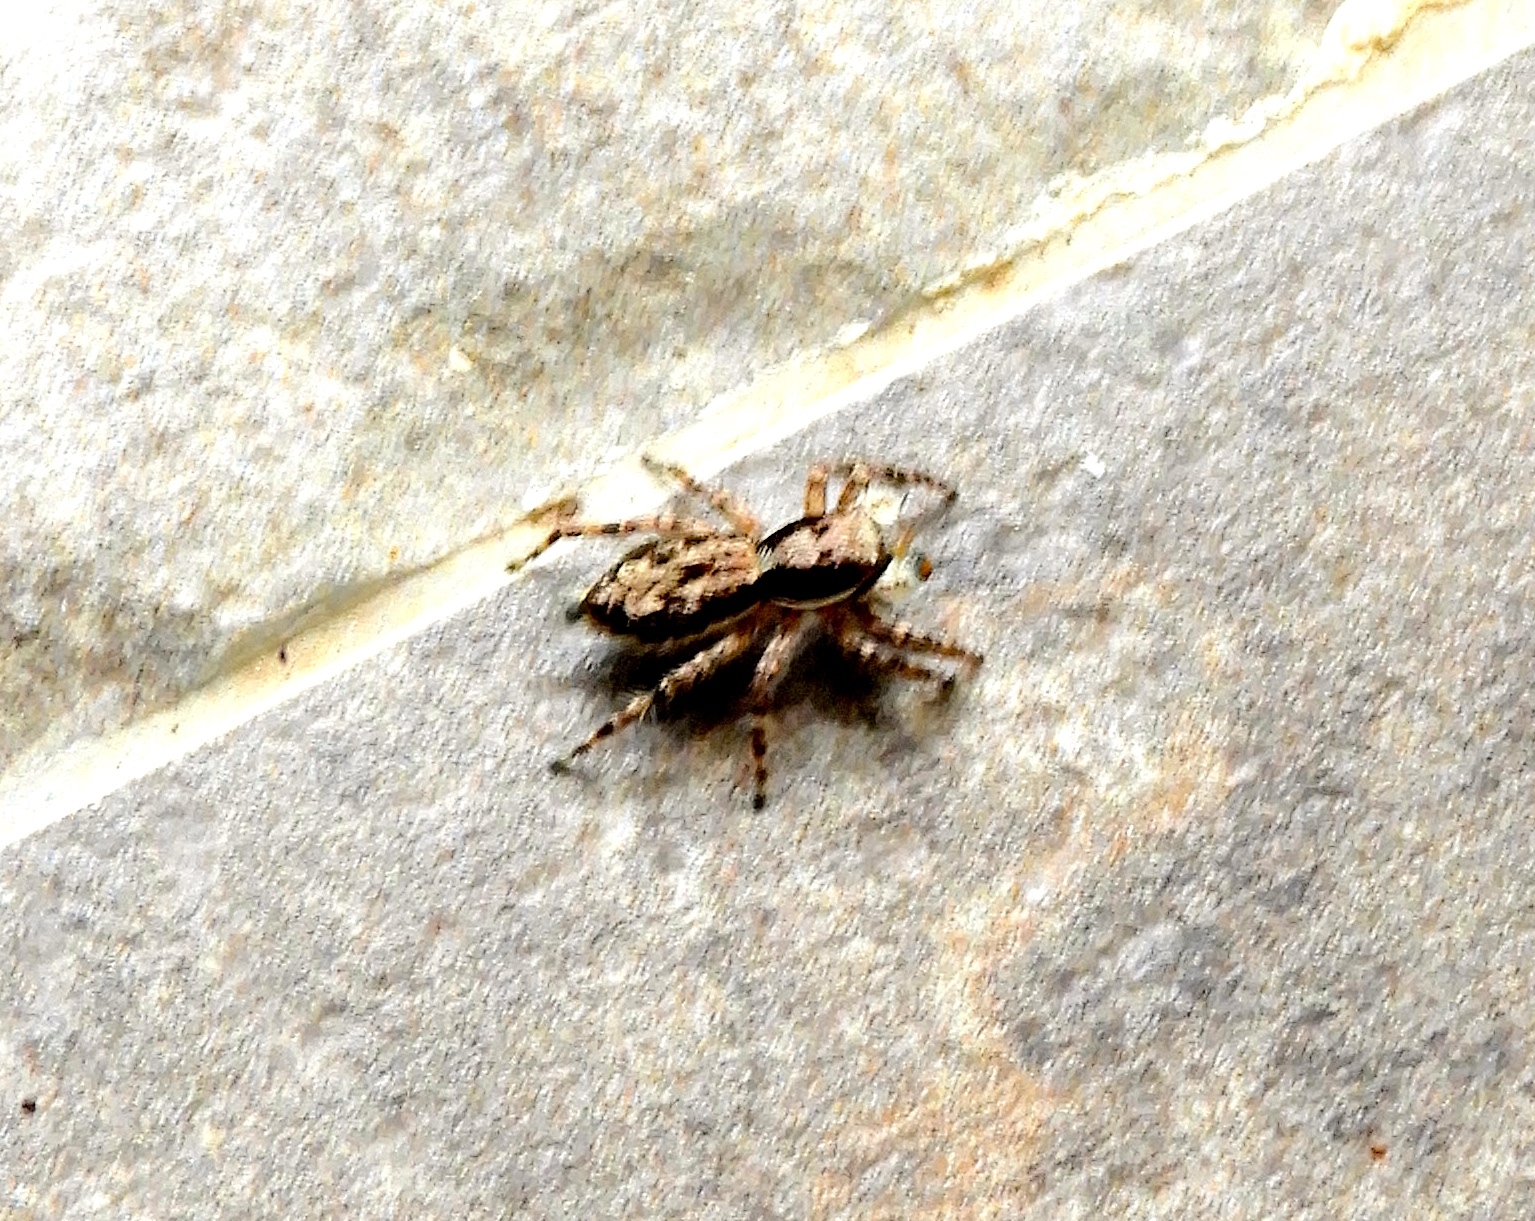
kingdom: Animalia
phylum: Arthropoda
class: Arachnida
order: Araneae
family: Salticidae
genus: Menemerus
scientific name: Menemerus
